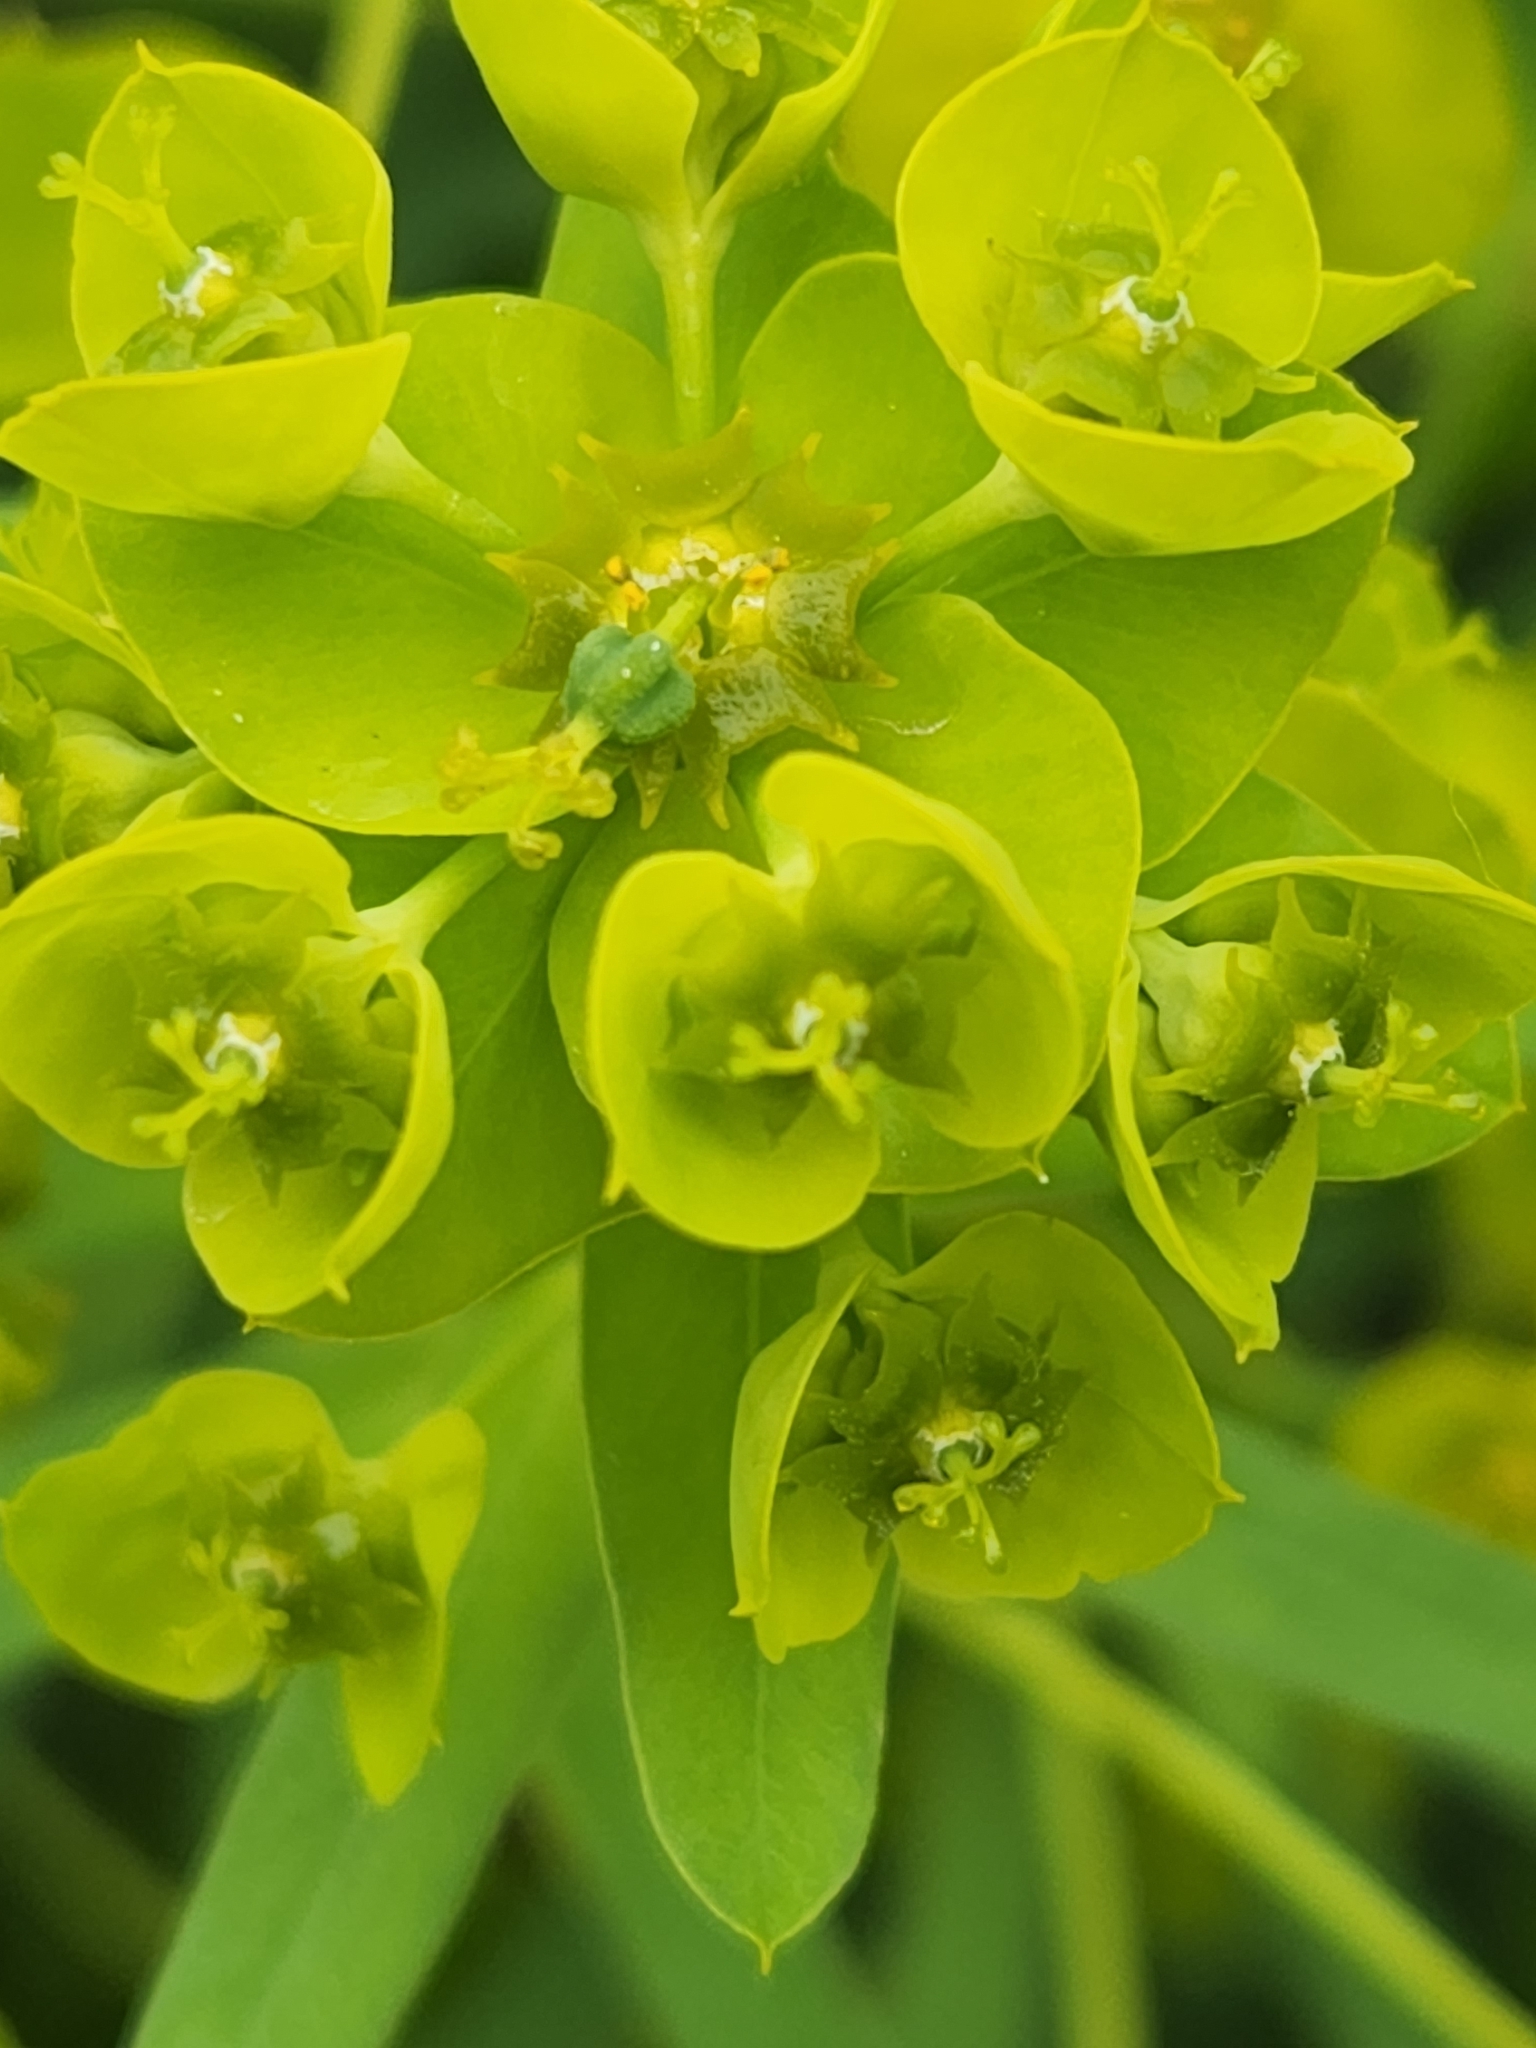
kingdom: Plantae
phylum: Tracheophyta
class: Magnoliopsida
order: Malpighiales
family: Euphorbiaceae
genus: Euphorbia
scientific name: Euphorbia virgata
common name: Leafy spurge
